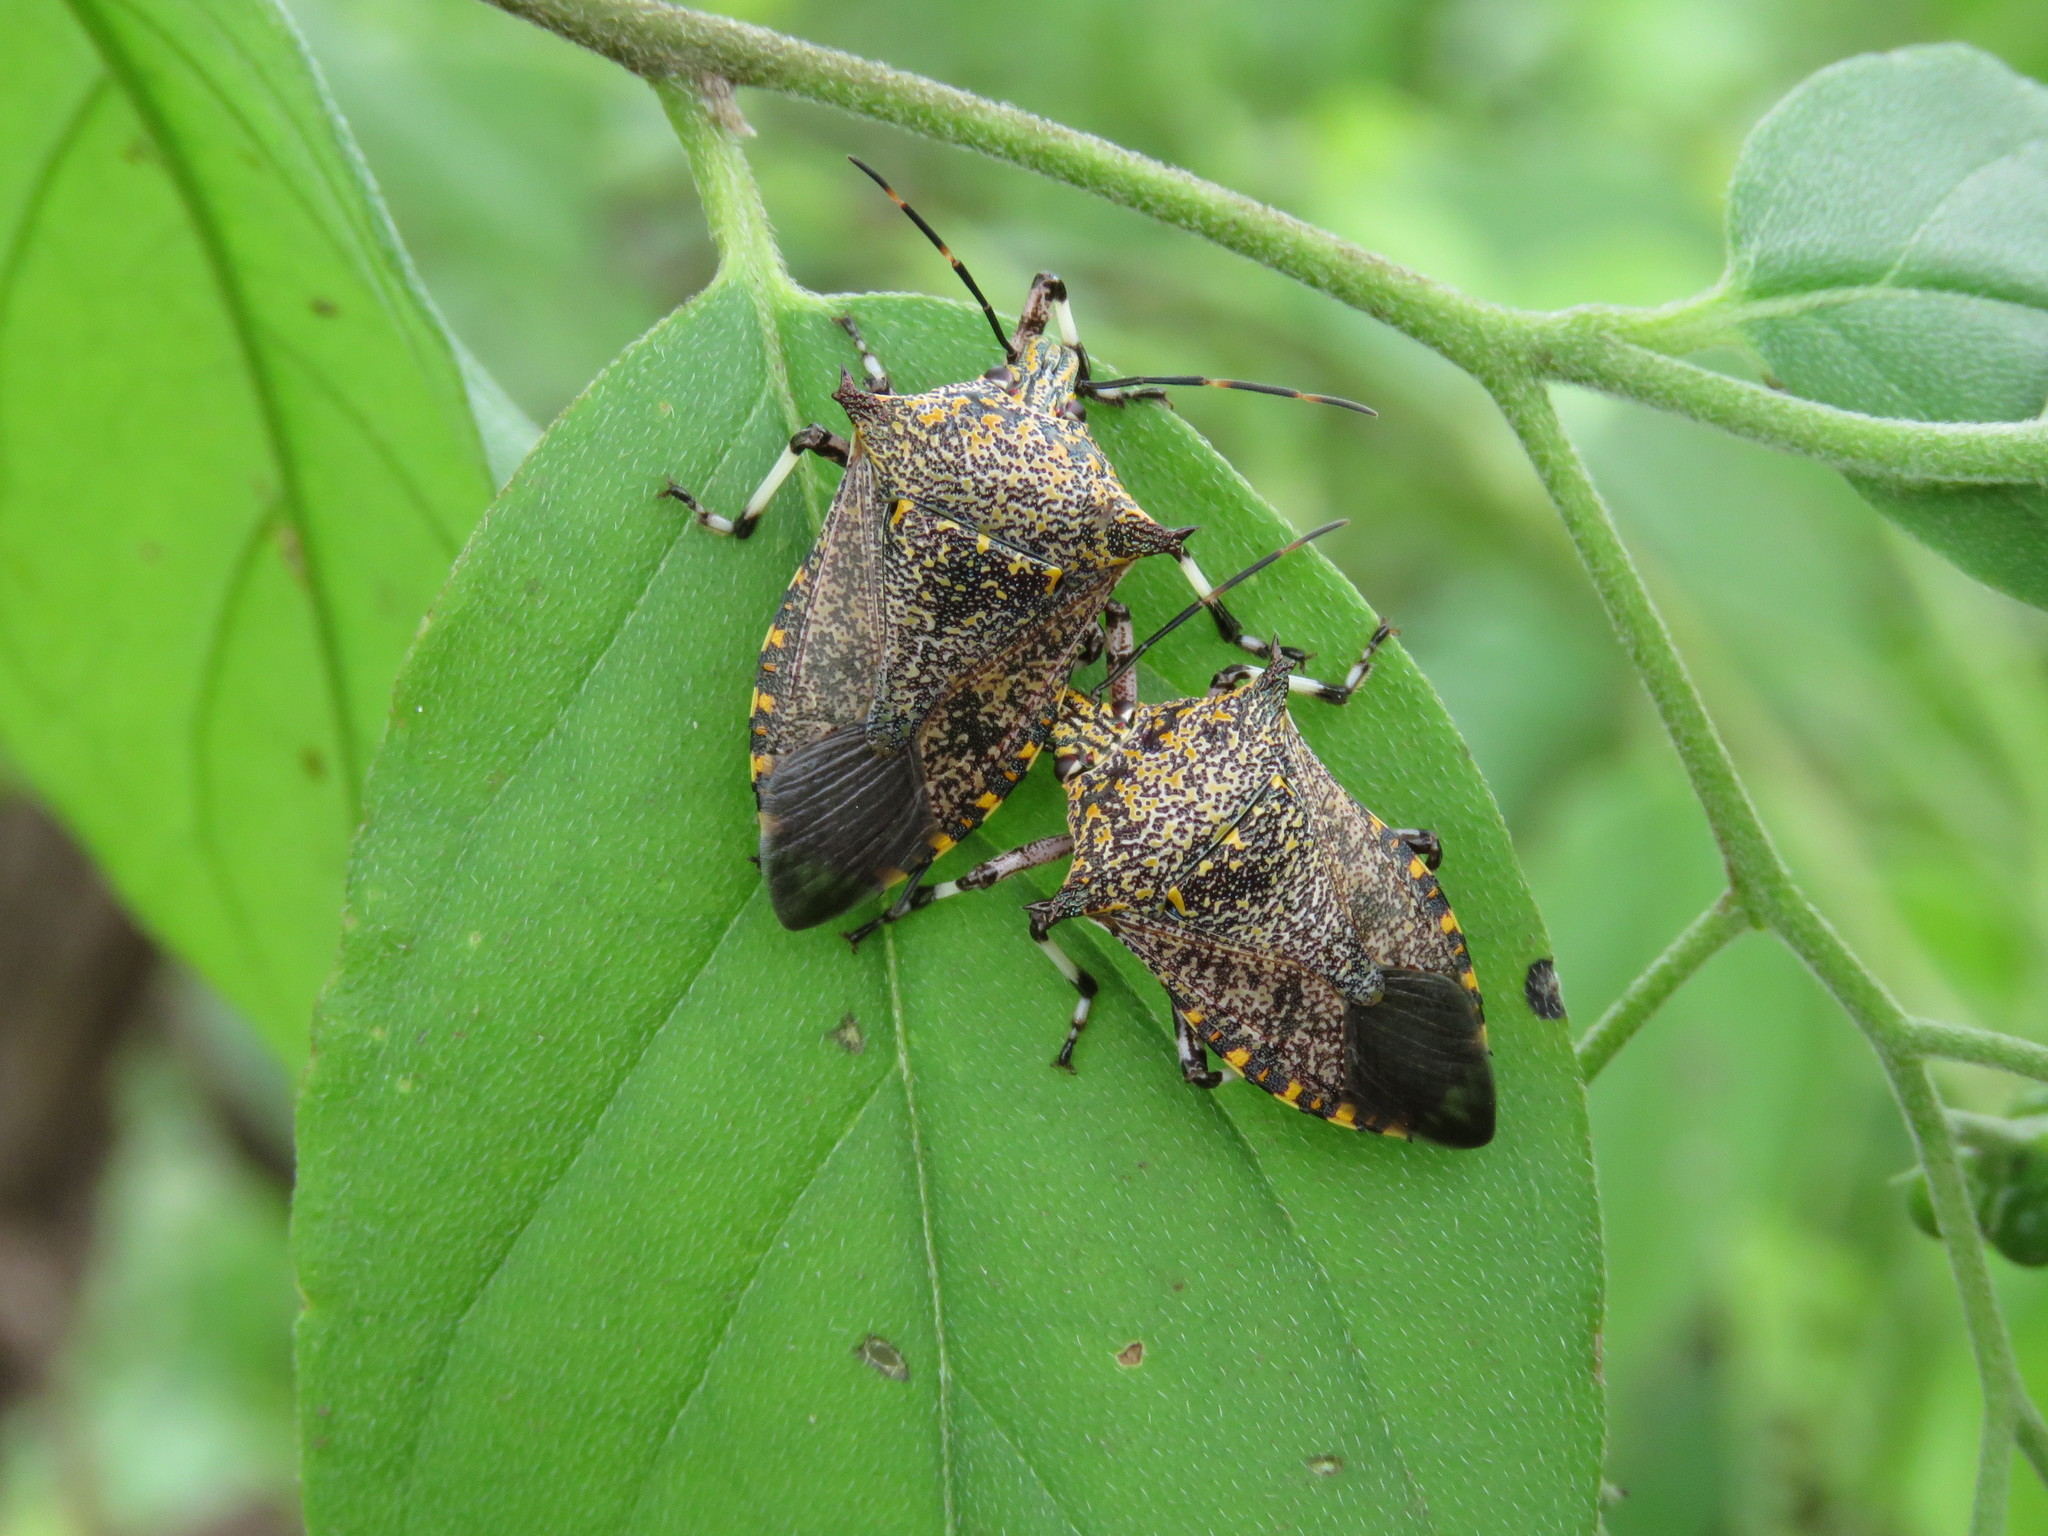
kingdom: Animalia
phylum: Arthropoda
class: Insecta
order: Hemiptera
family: Pentatomidae
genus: Alcaeorrhynchus
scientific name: Alcaeorrhynchus grandis
